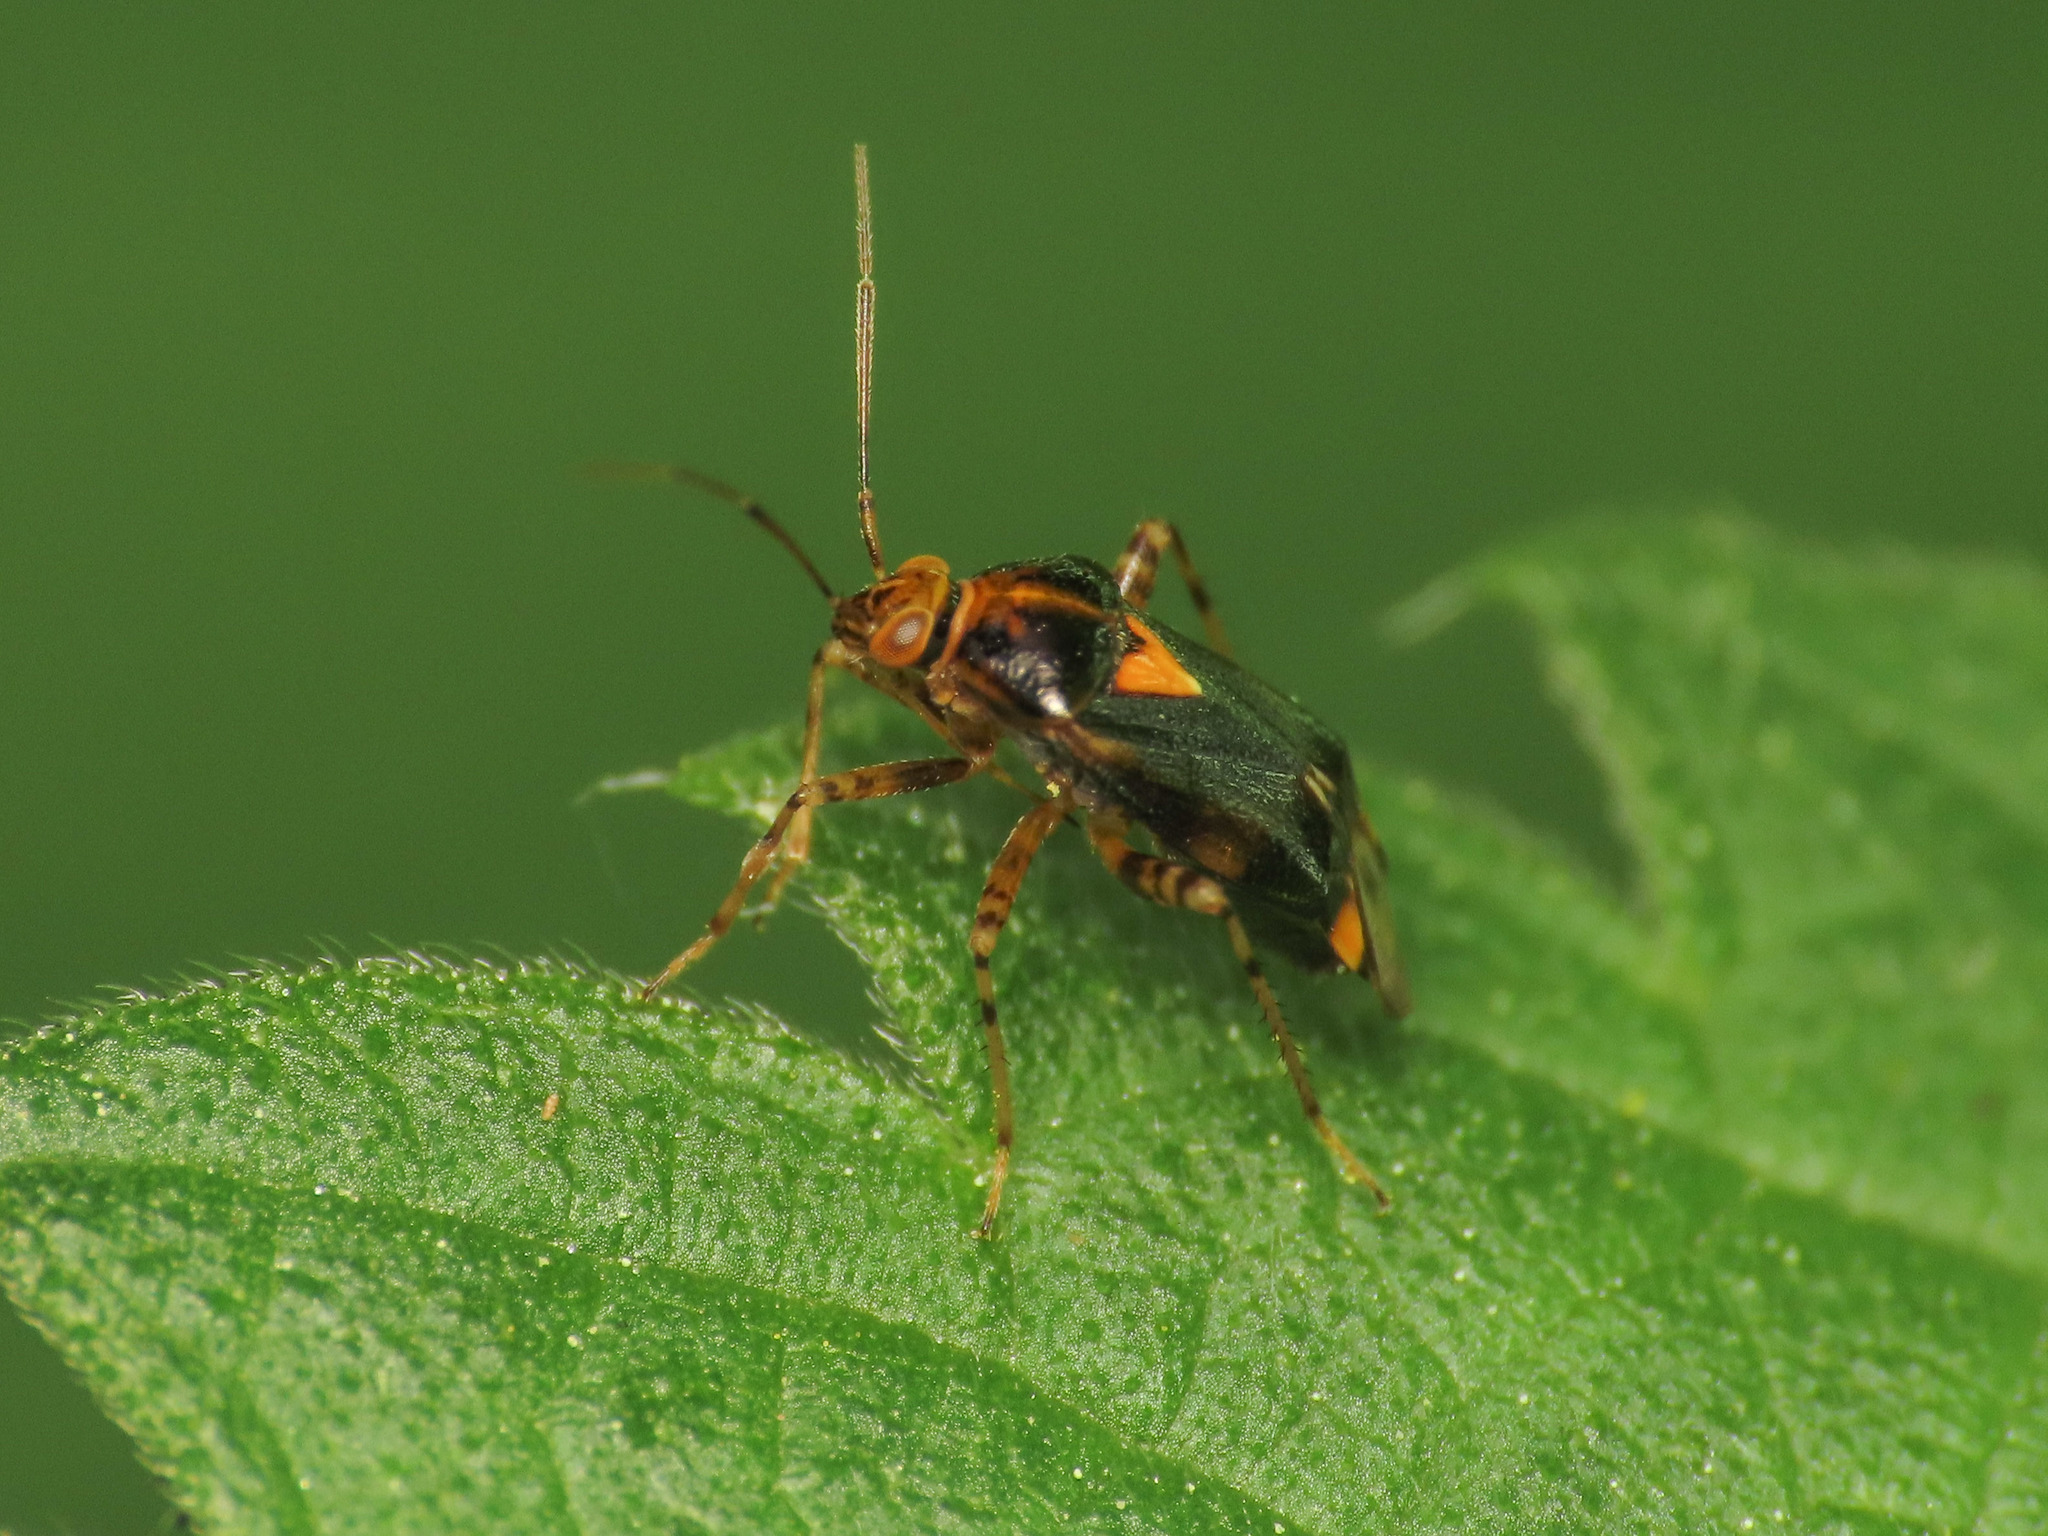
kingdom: Animalia
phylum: Arthropoda
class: Insecta
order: Hemiptera
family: Miridae
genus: Liocoris
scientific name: Liocoris tripustulatus
